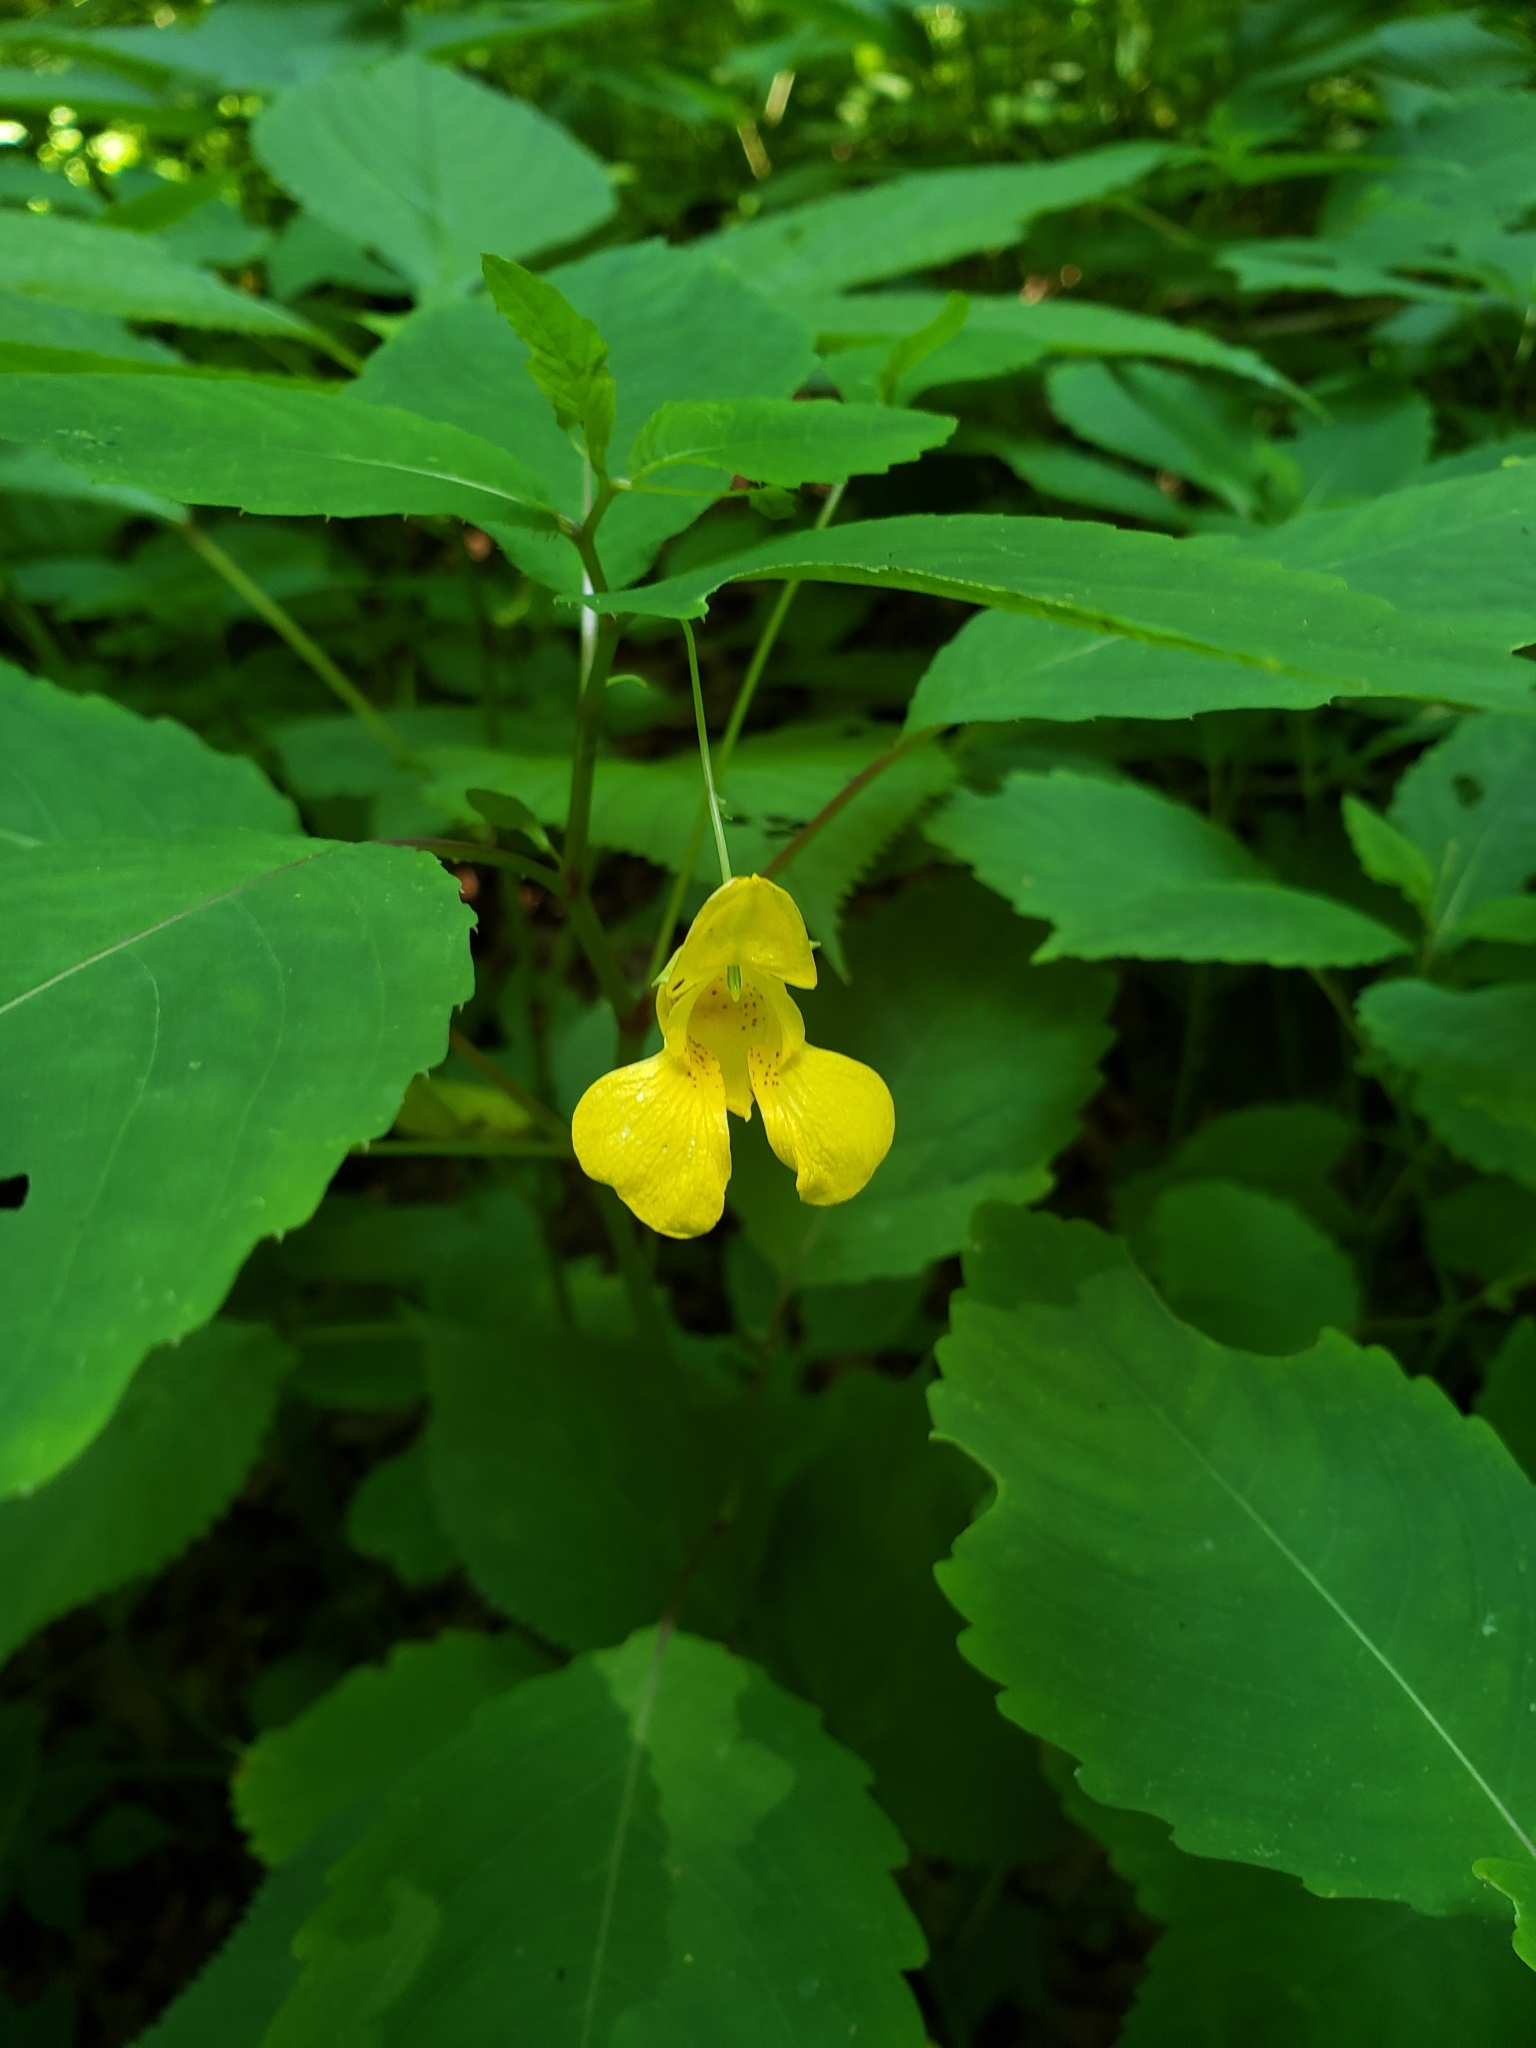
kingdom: Plantae
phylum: Tracheophyta
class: Magnoliopsida
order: Ericales
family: Balsaminaceae
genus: Impatiens
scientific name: Impatiens pallida
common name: Pale snapweed
